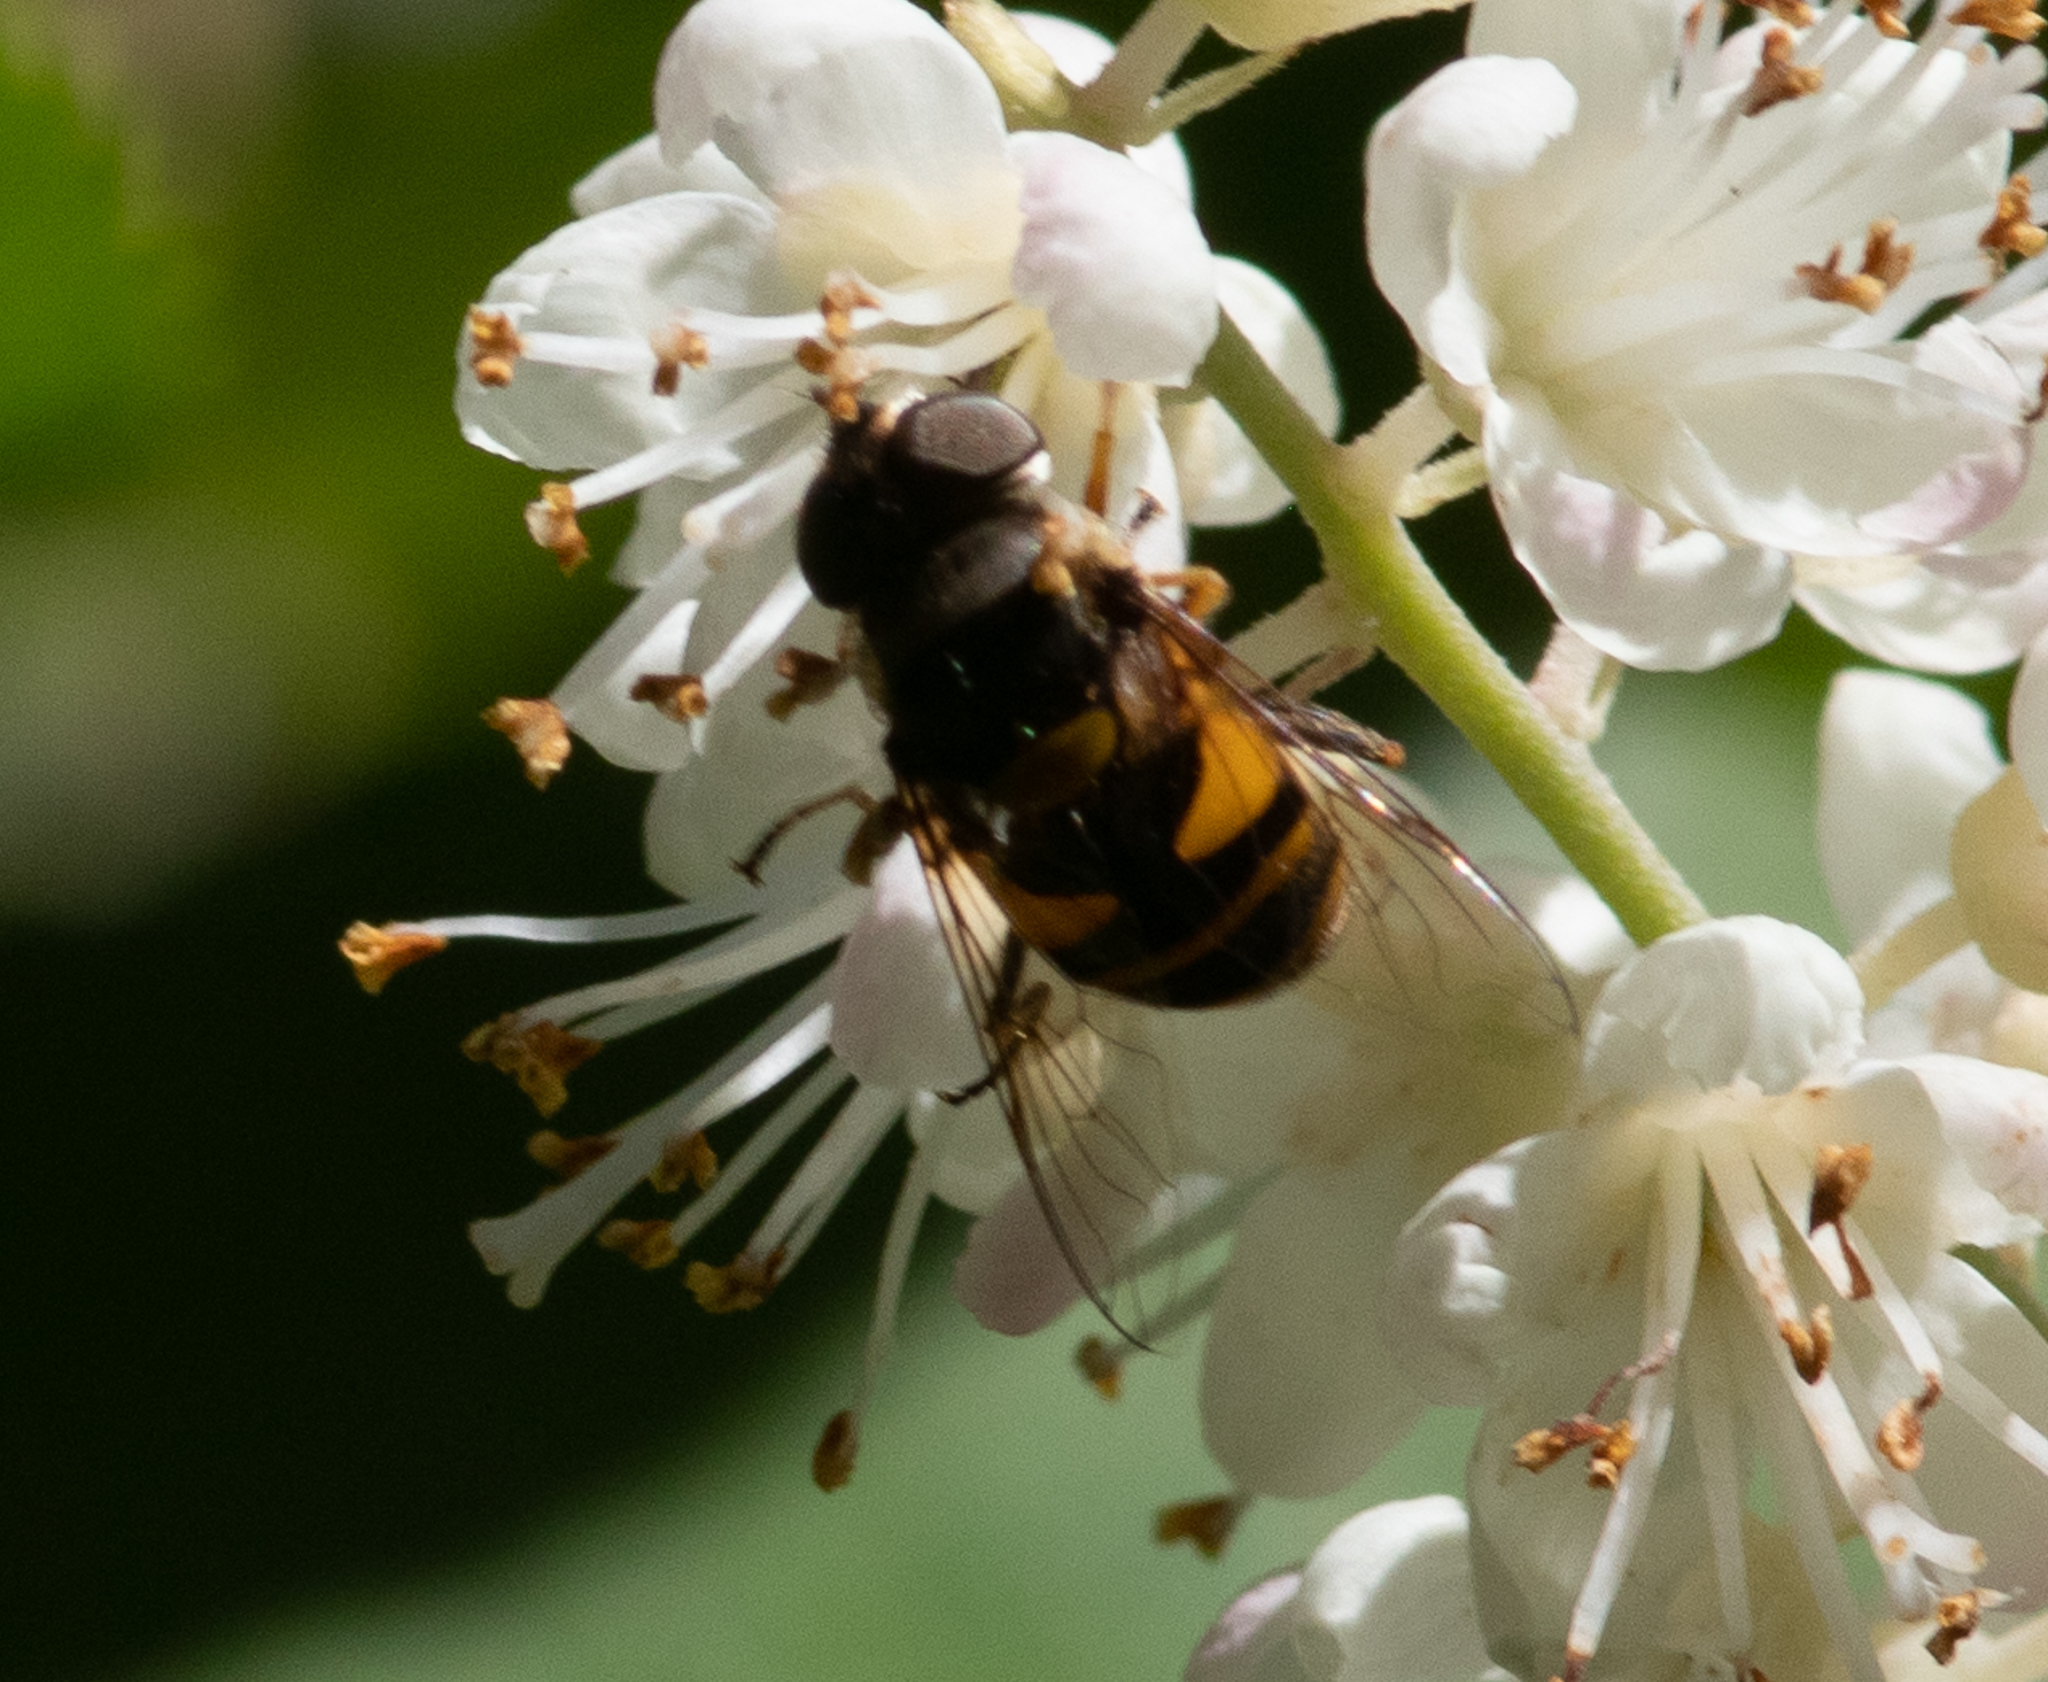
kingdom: Animalia
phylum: Arthropoda
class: Insecta
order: Diptera
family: Syrphidae
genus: Eristalis
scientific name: Eristalis transversa
